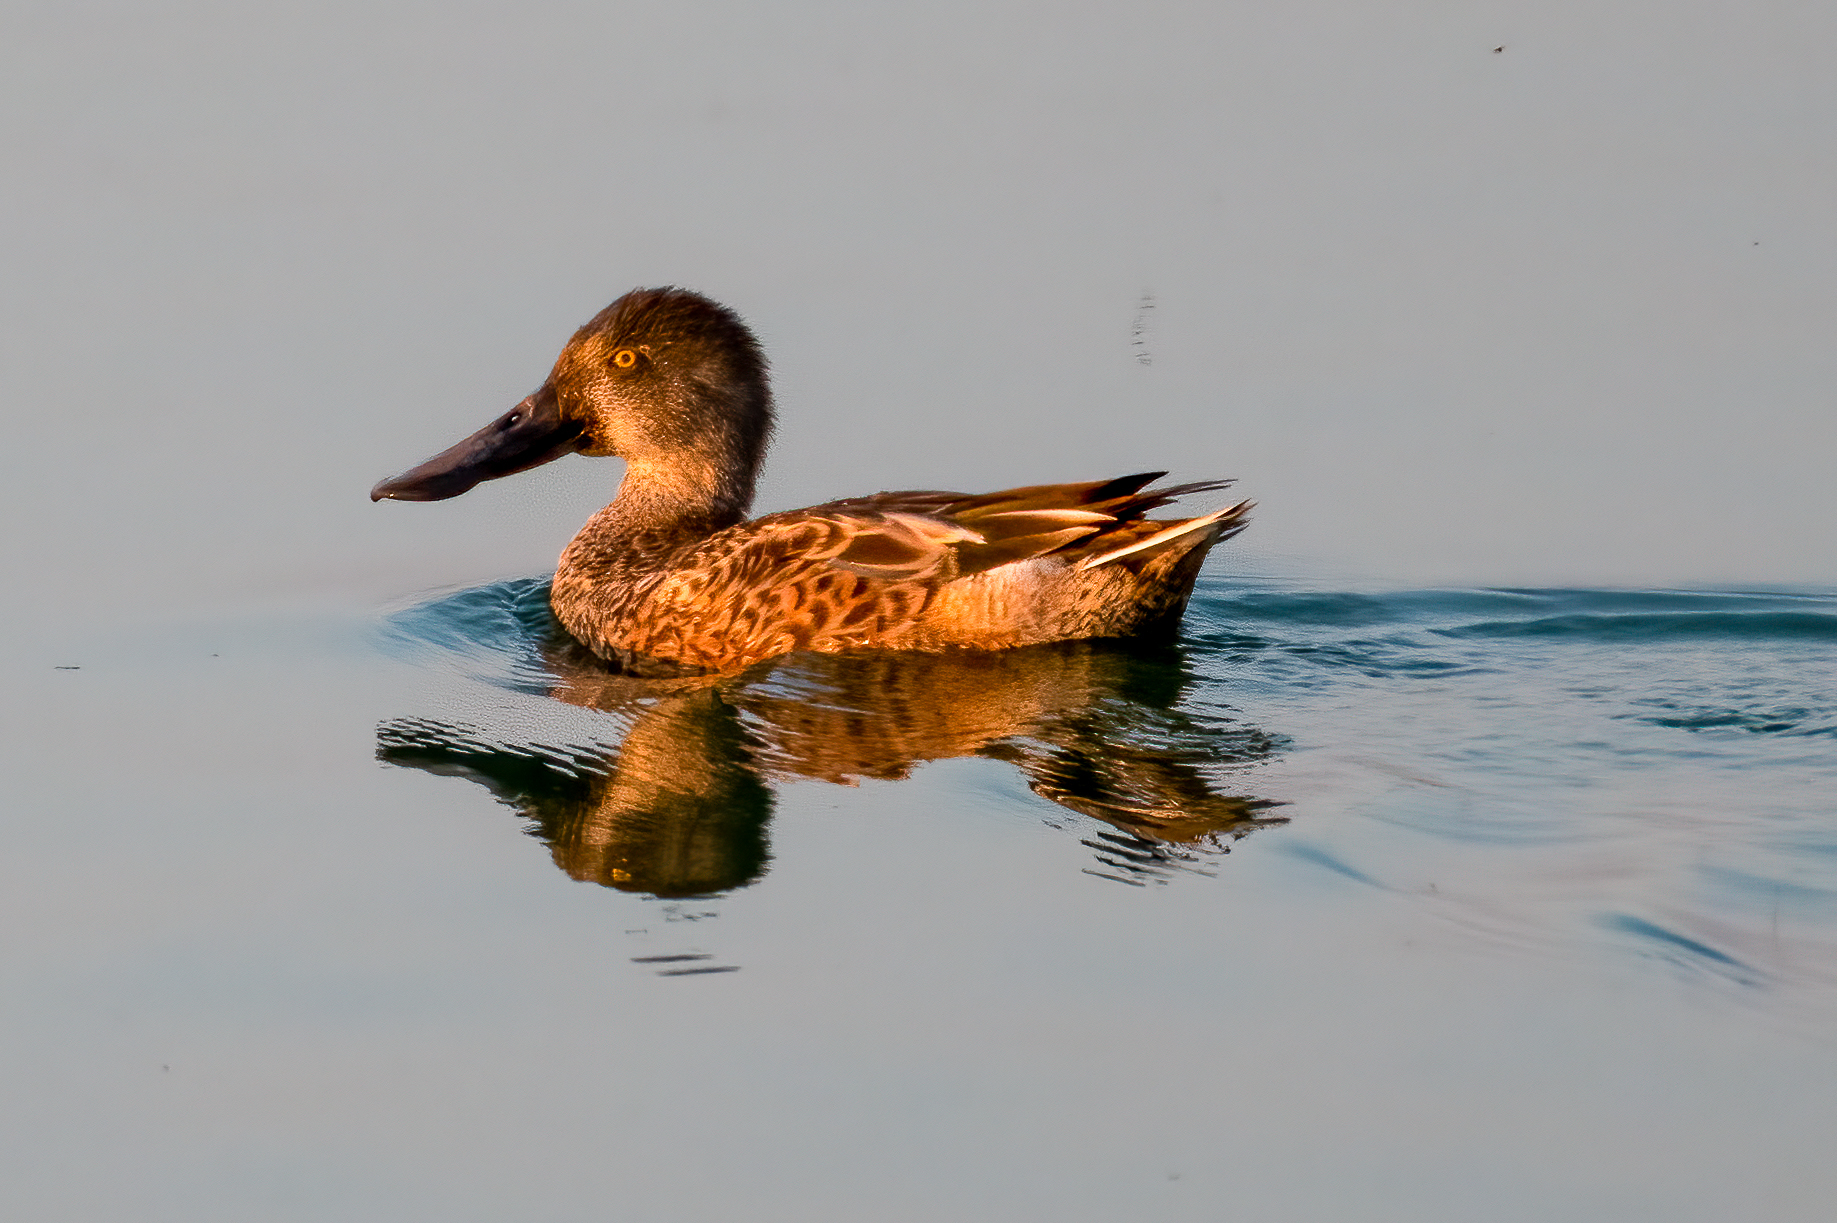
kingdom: Animalia
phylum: Chordata
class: Aves
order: Anseriformes
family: Anatidae
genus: Spatula
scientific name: Spatula clypeata
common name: Northern shoveler
